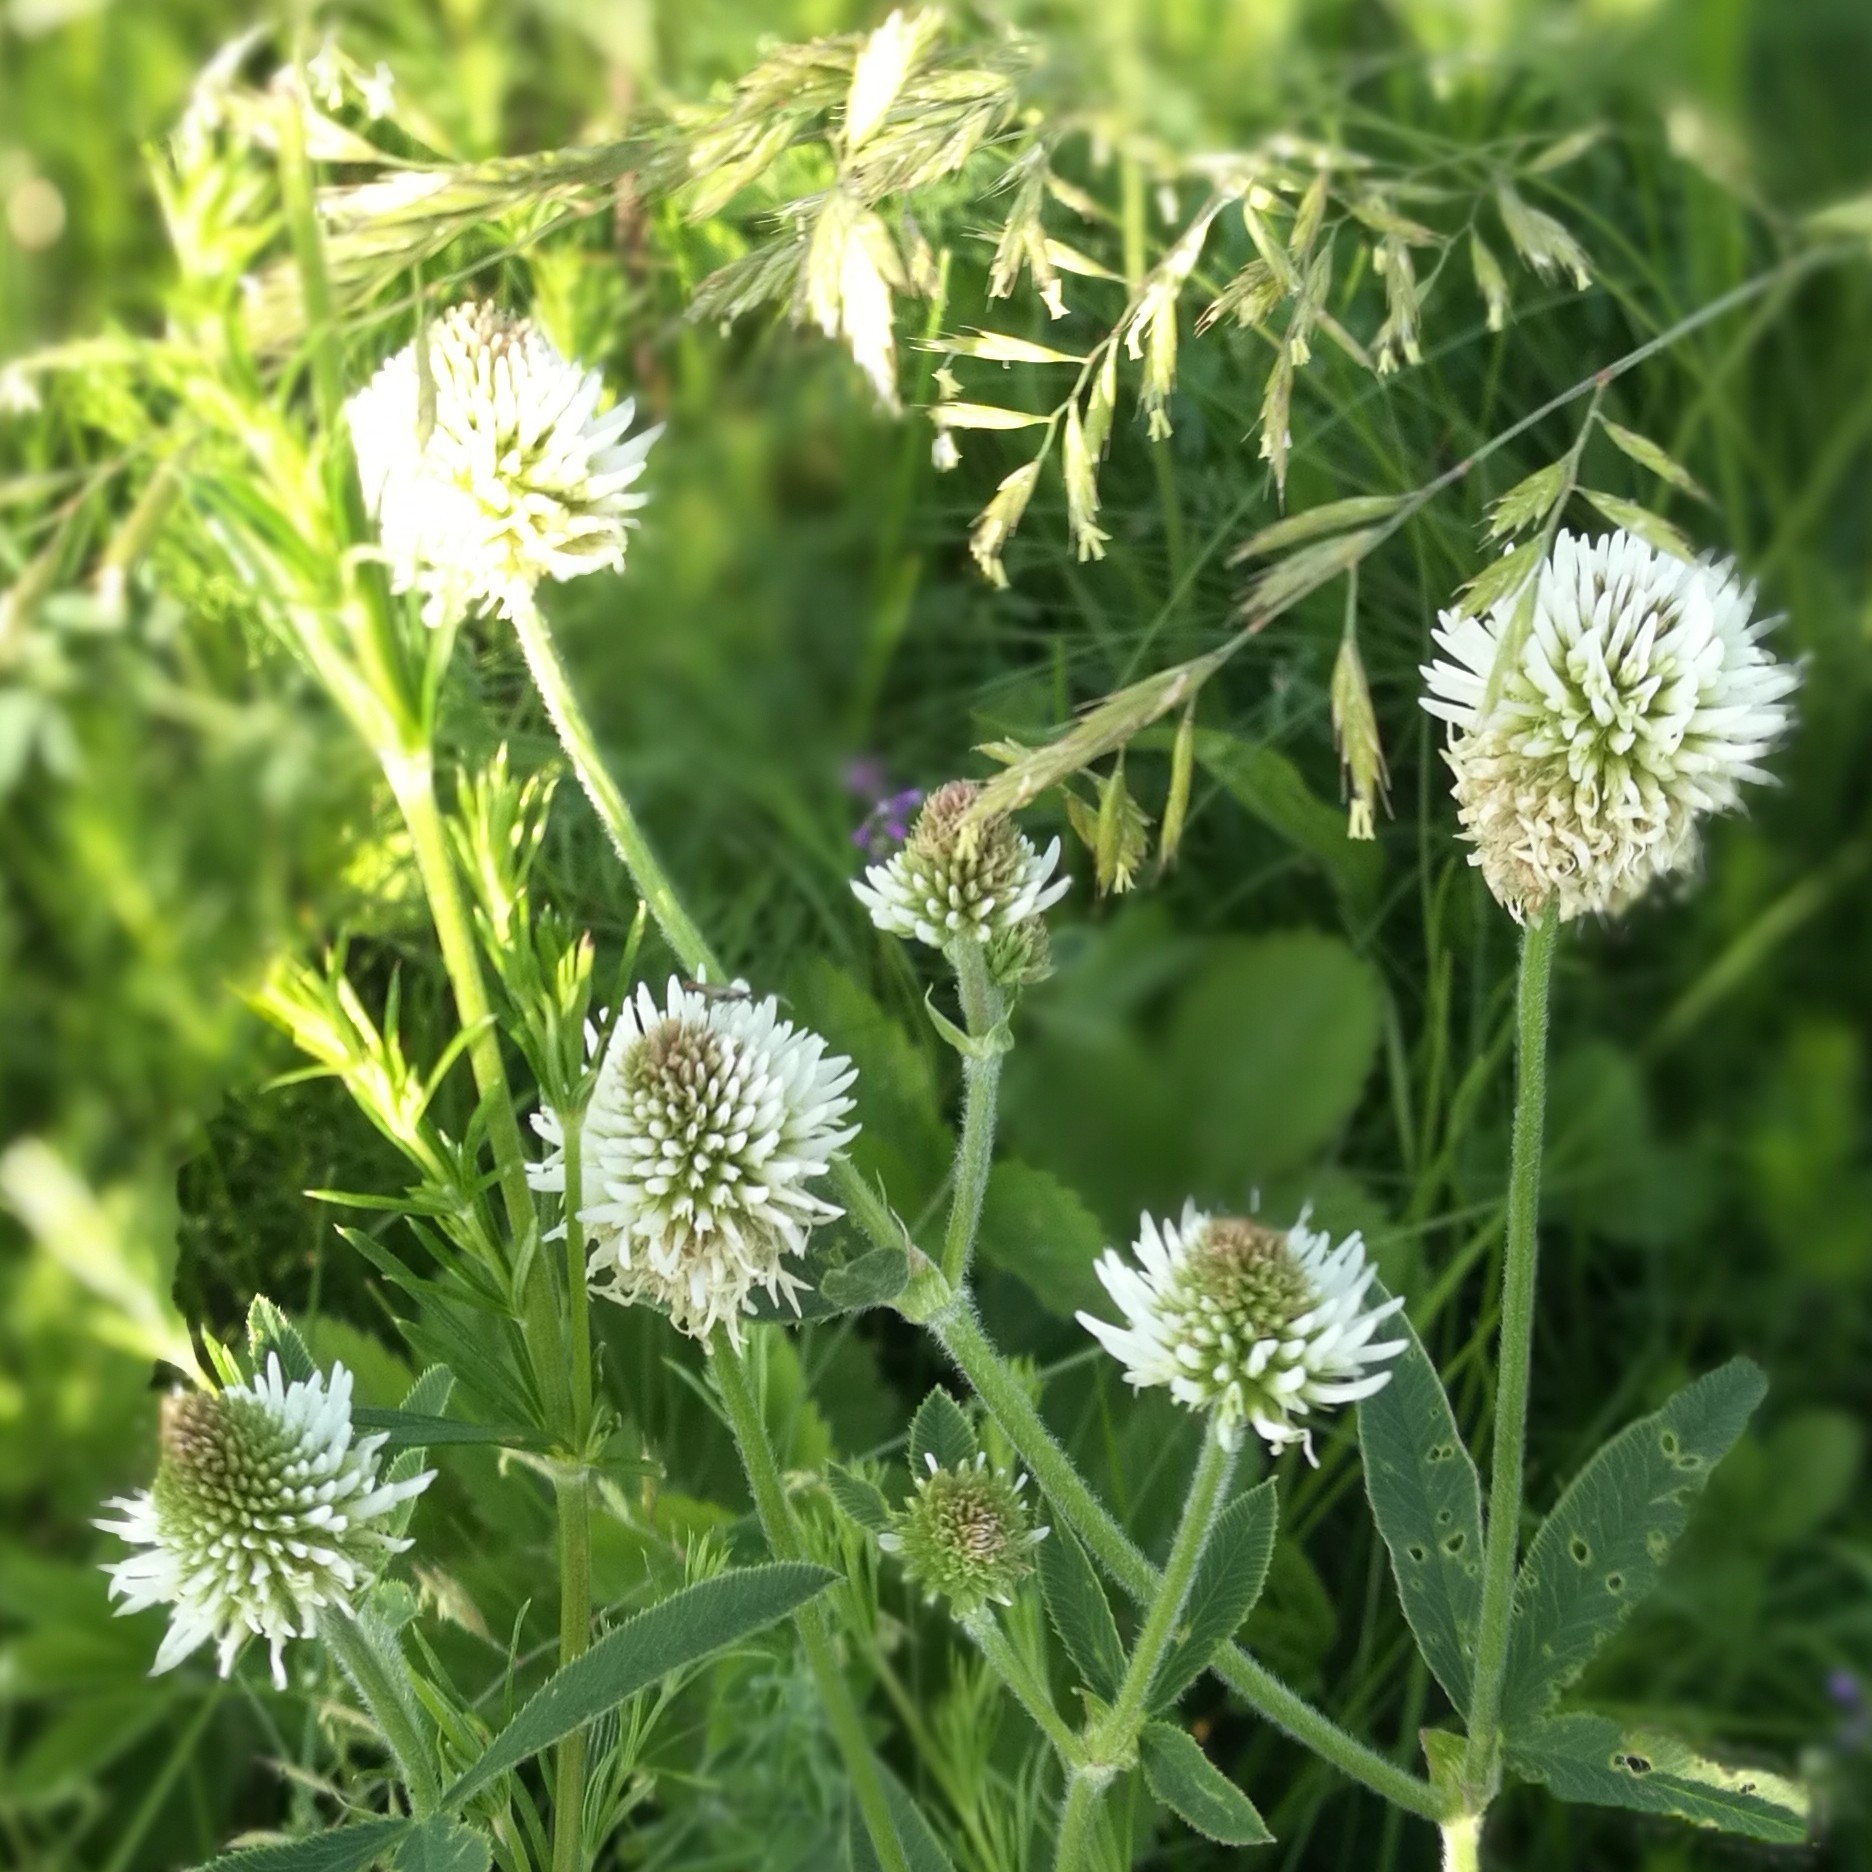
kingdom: Plantae
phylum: Tracheophyta
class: Magnoliopsida
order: Fabales
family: Fabaceae
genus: Trifolium
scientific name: Trifolium montanum
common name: Mountain clover
